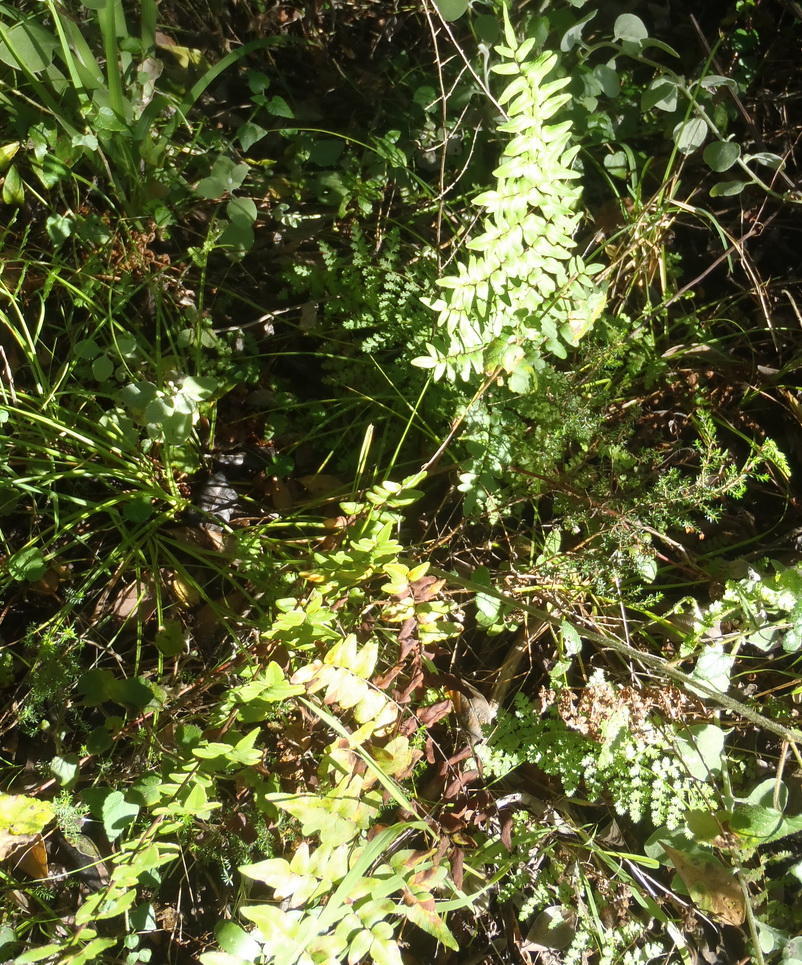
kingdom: Plantae
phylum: Tracheophyta
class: Polypodiopsida
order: Polypodiales
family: Pteridaceae
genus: Cheilanthes
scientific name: Cheilanthes viridis
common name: Green cliffbrake
